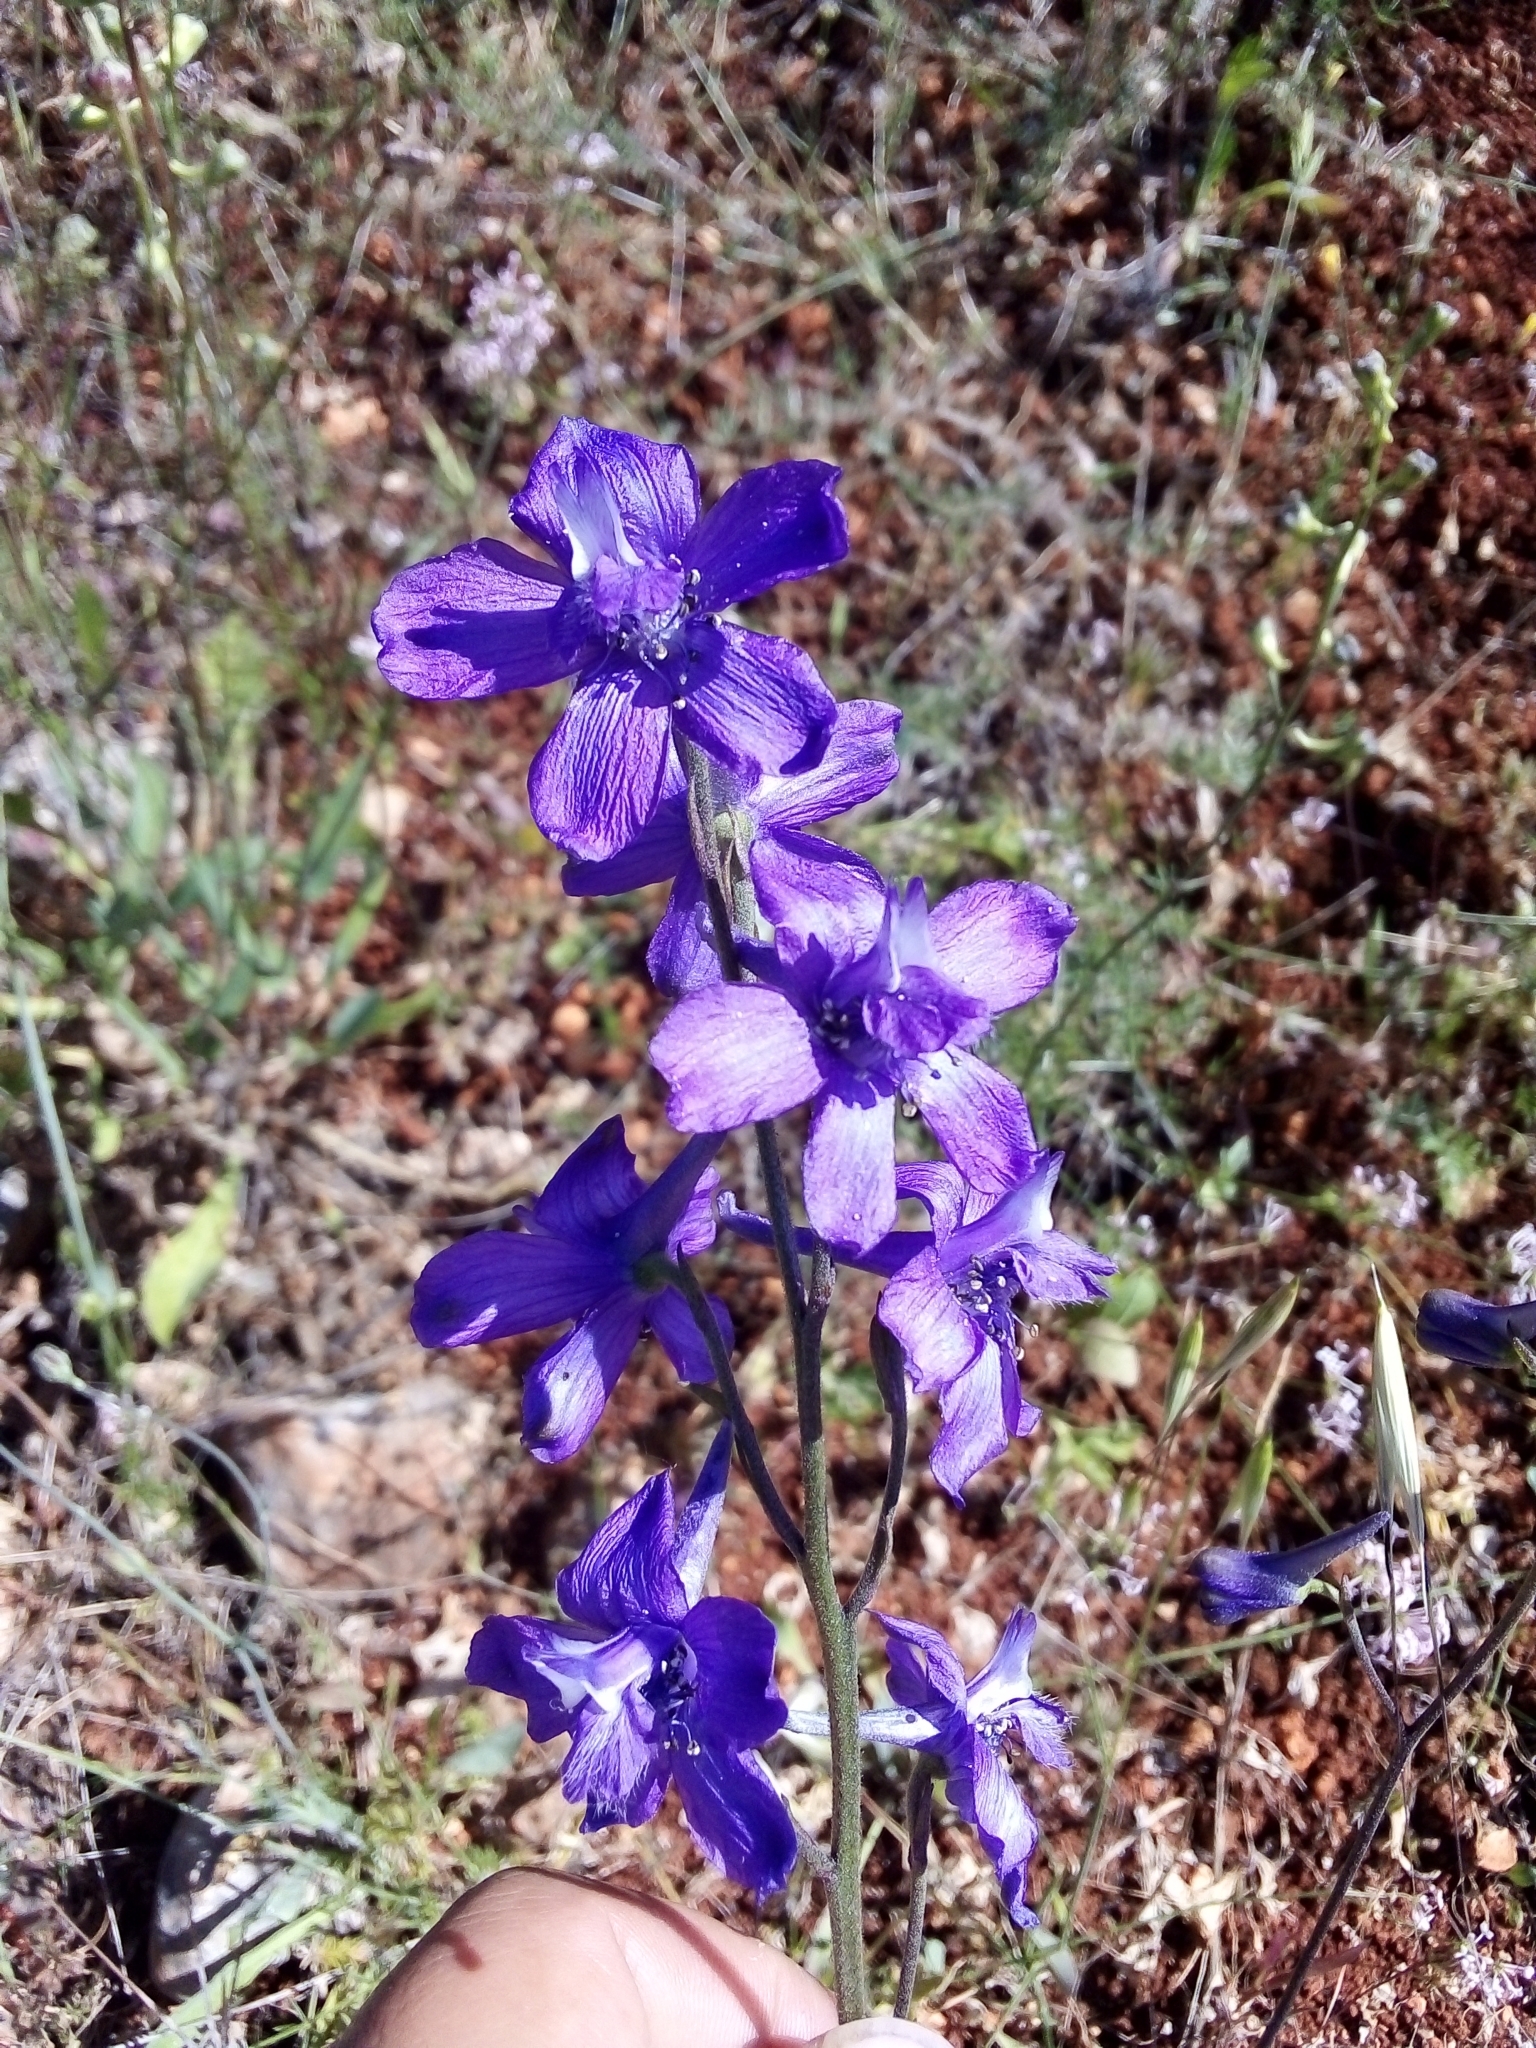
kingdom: Plantae
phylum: Tracheophyta
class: Magnoliopsida
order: Ranunculales
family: Ranunculaceae
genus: Delphinium
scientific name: Delphinium pentagynum
